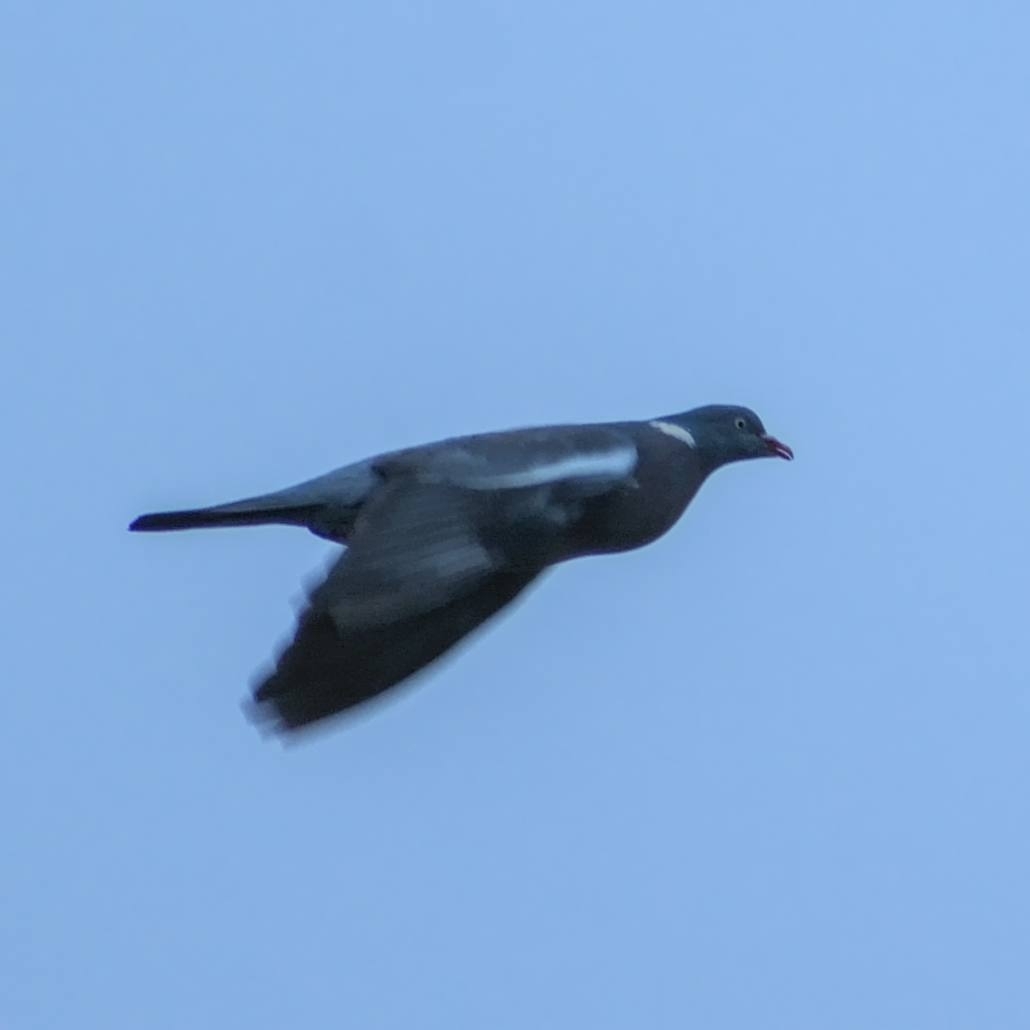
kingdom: Animalia
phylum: Chordata
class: Aves
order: Columbiformes
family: Columbidae
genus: Columba
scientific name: Columba palumbus
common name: Common wood pigeon
